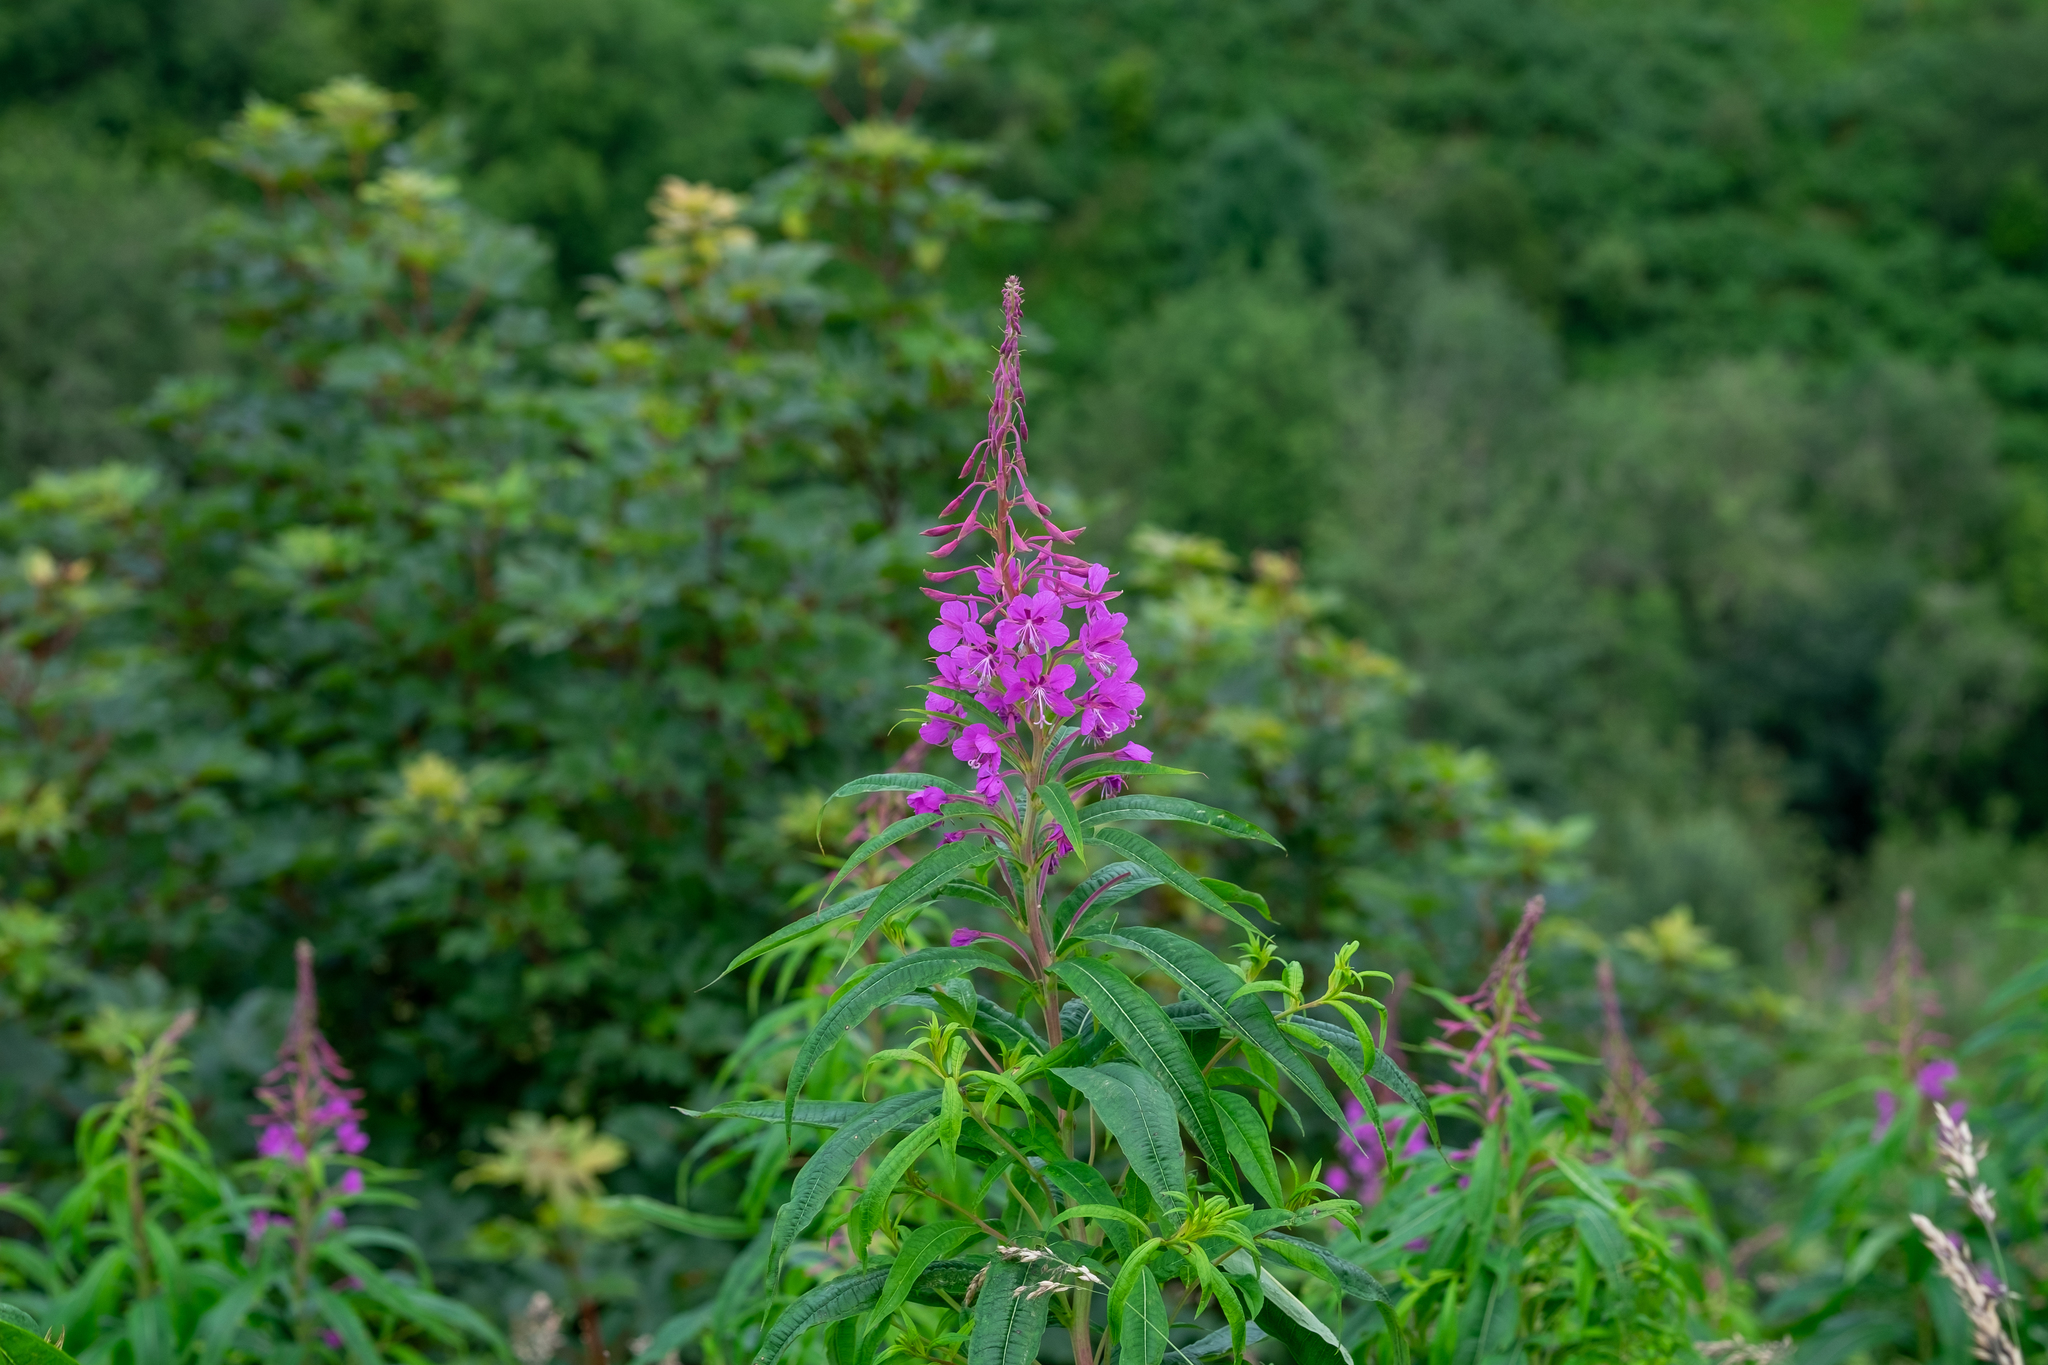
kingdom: Plantae
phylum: Tracheophyta
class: Magnoliopsida
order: Myrtales
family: Onagraceae
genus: Chamaenerion
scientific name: Chamaenerion angustifolium
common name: Fireweed
